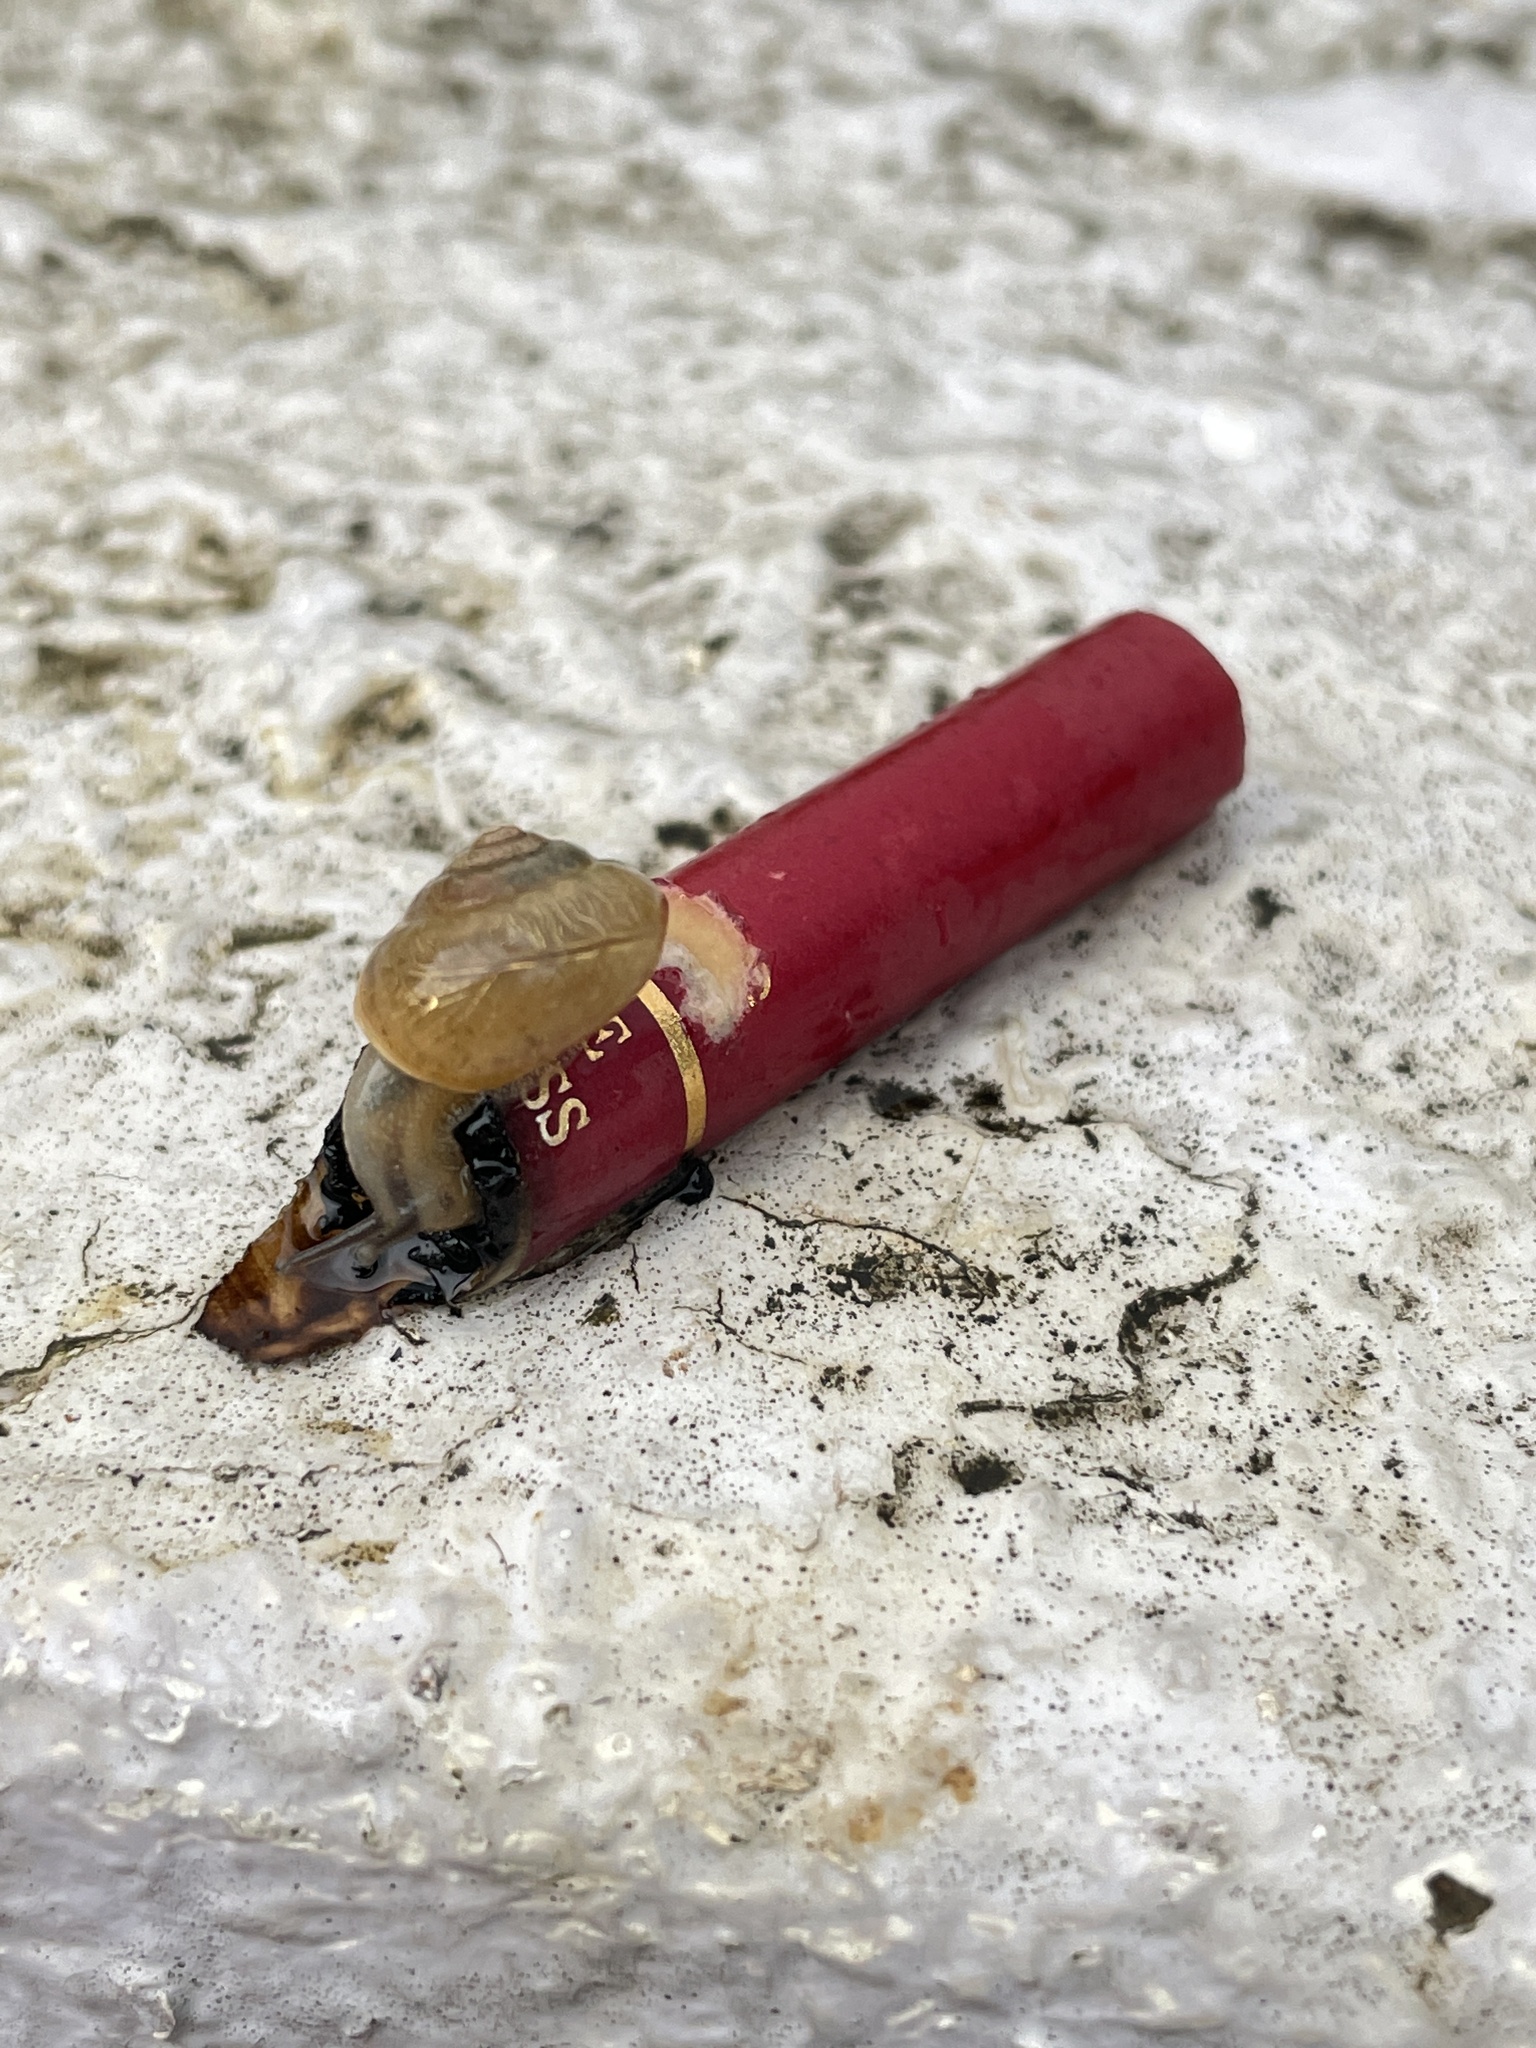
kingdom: Animalia
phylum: Mollusca
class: Gastropoda
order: Stylommatophora
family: Camaenidae
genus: Bradybaena
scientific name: Bradybaena similaris
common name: Asian trampsnail
